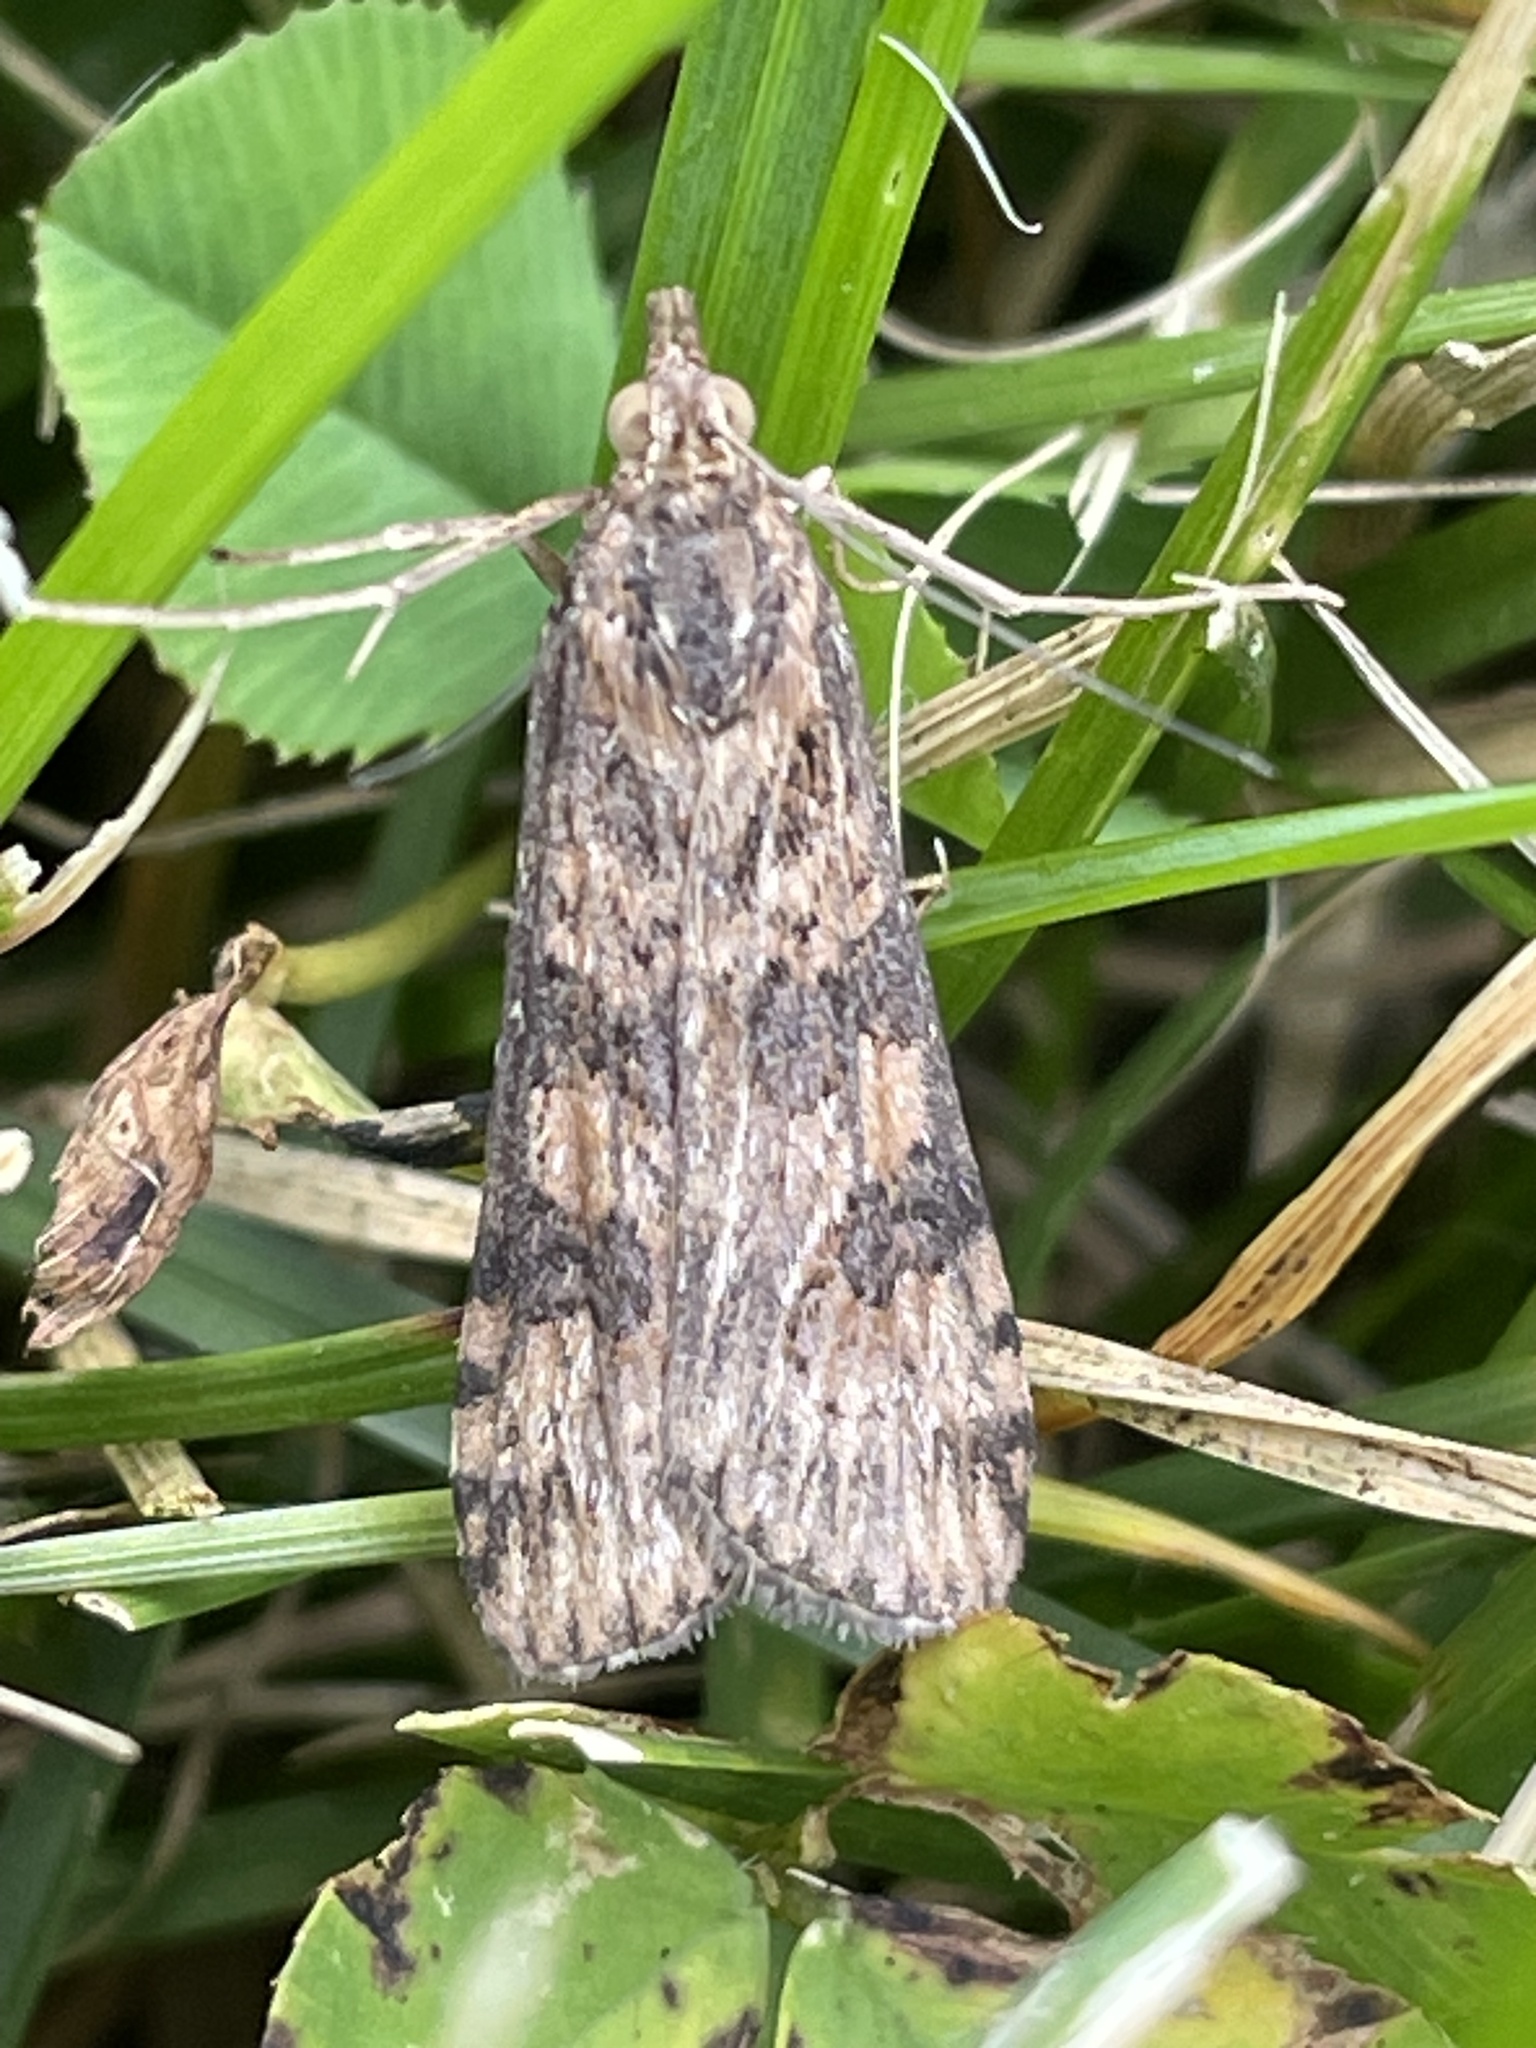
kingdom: Animalia
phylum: Arthropoda
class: Insecta
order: Lepidoptera
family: Crambidae
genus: Nomophila
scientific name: Nomophila nearctica
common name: American rush veneer
